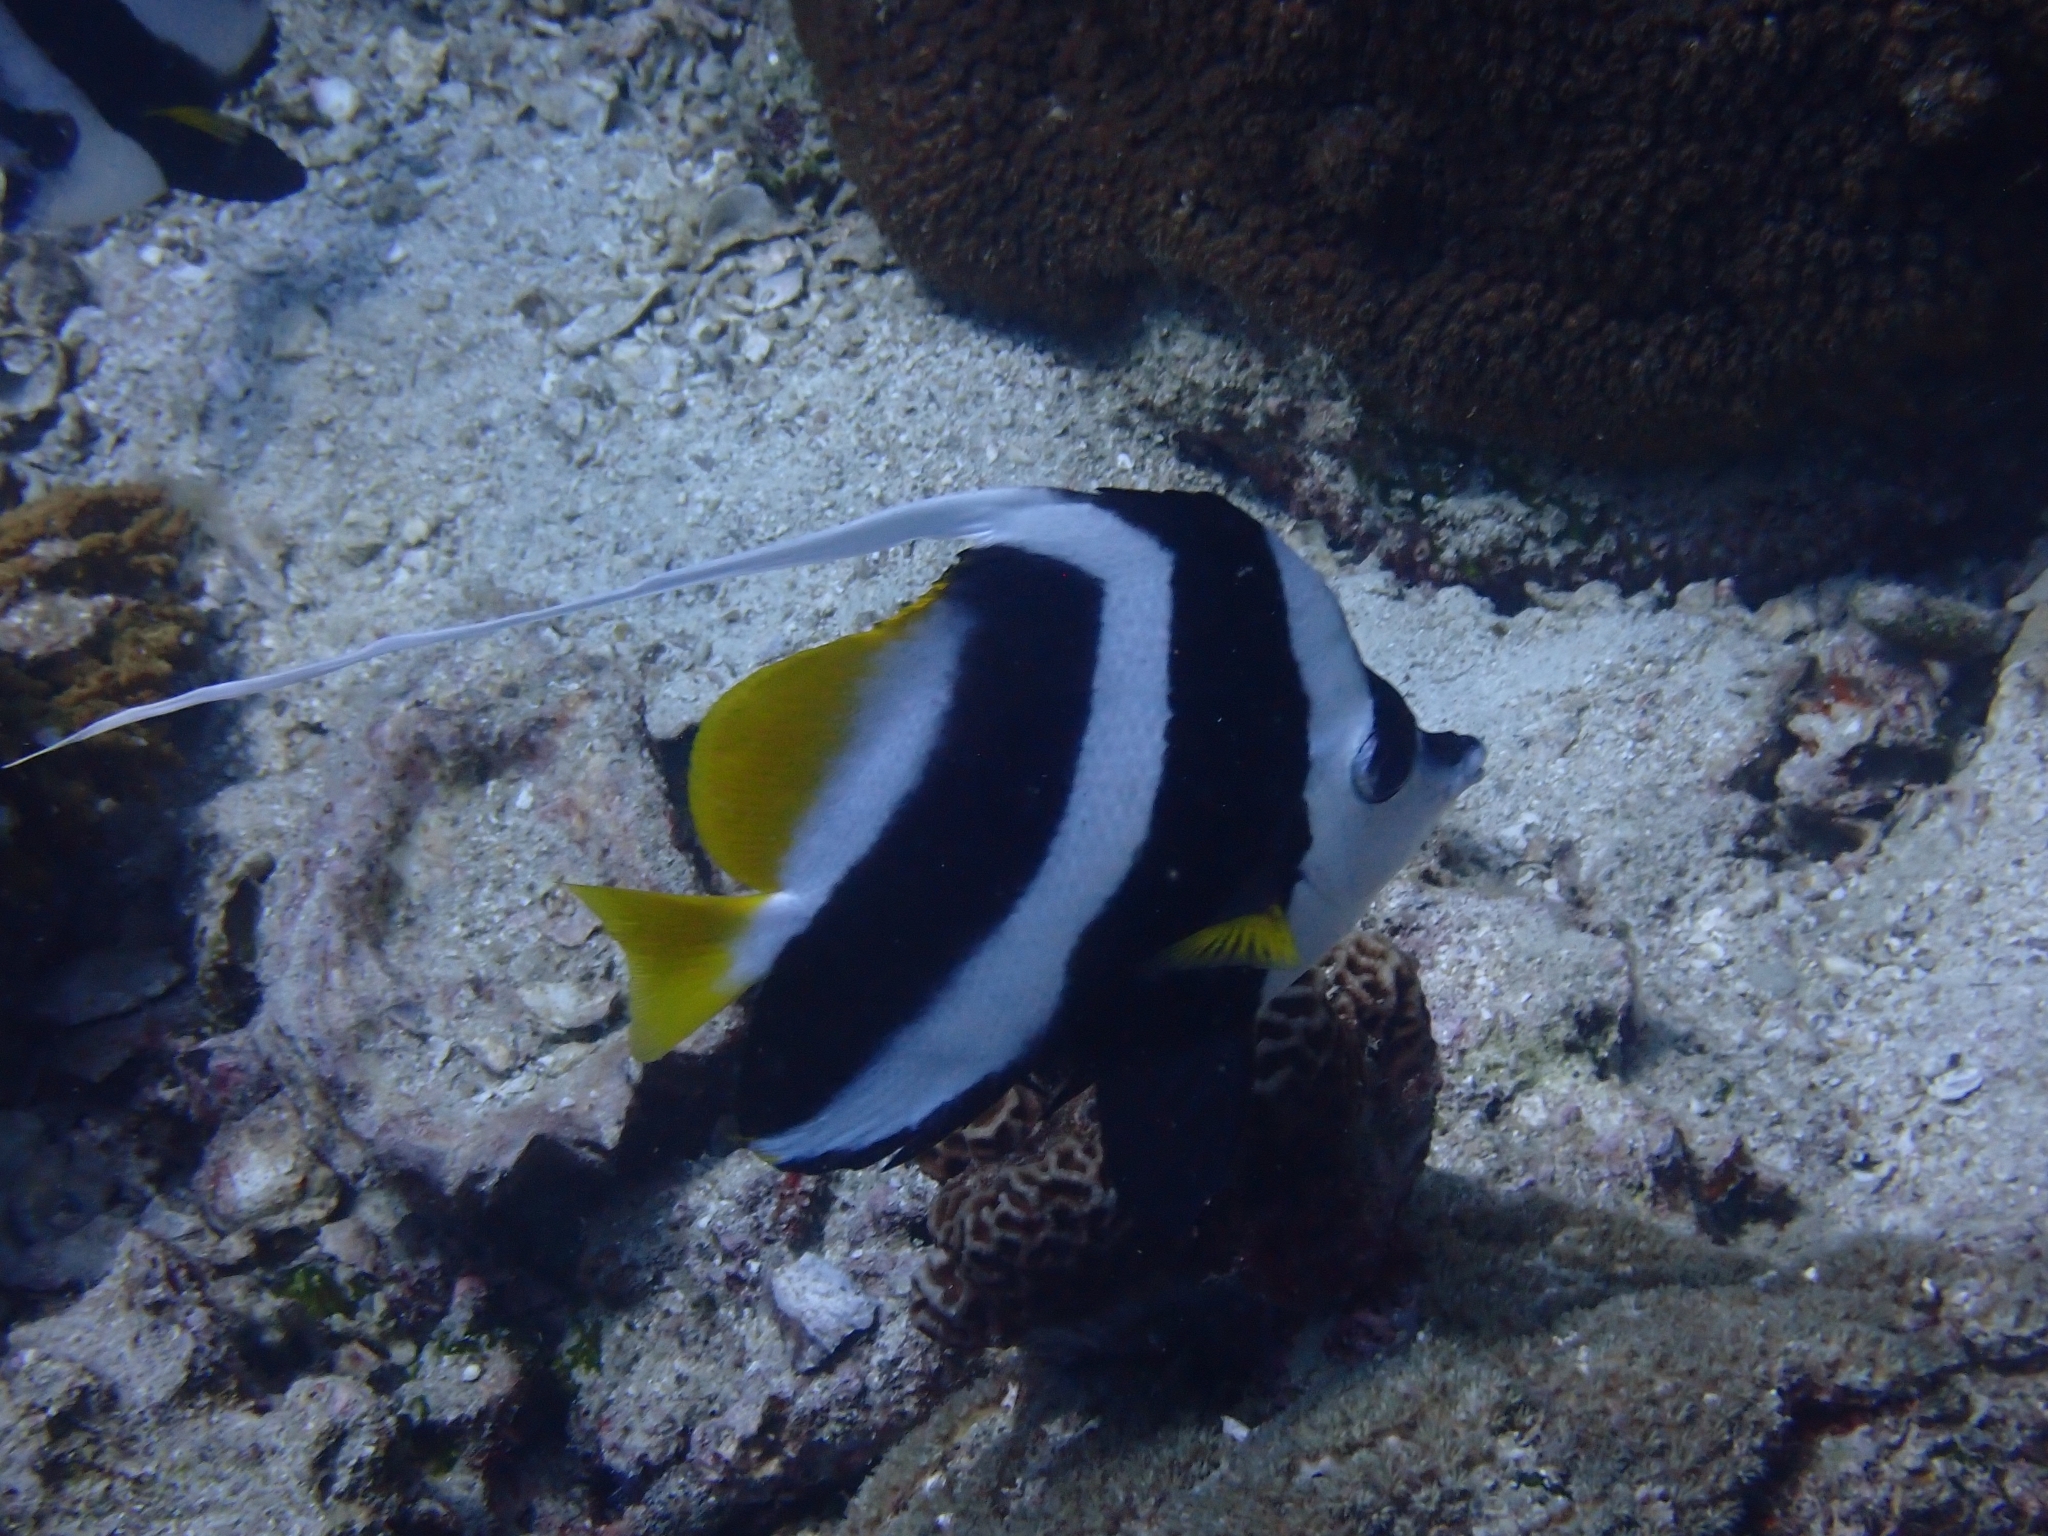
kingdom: Animalia
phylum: Chordata
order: Perciformes
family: Chaetodontidae
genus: Heniochus
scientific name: Heniochus acuminatus
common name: Pennant coralfish
